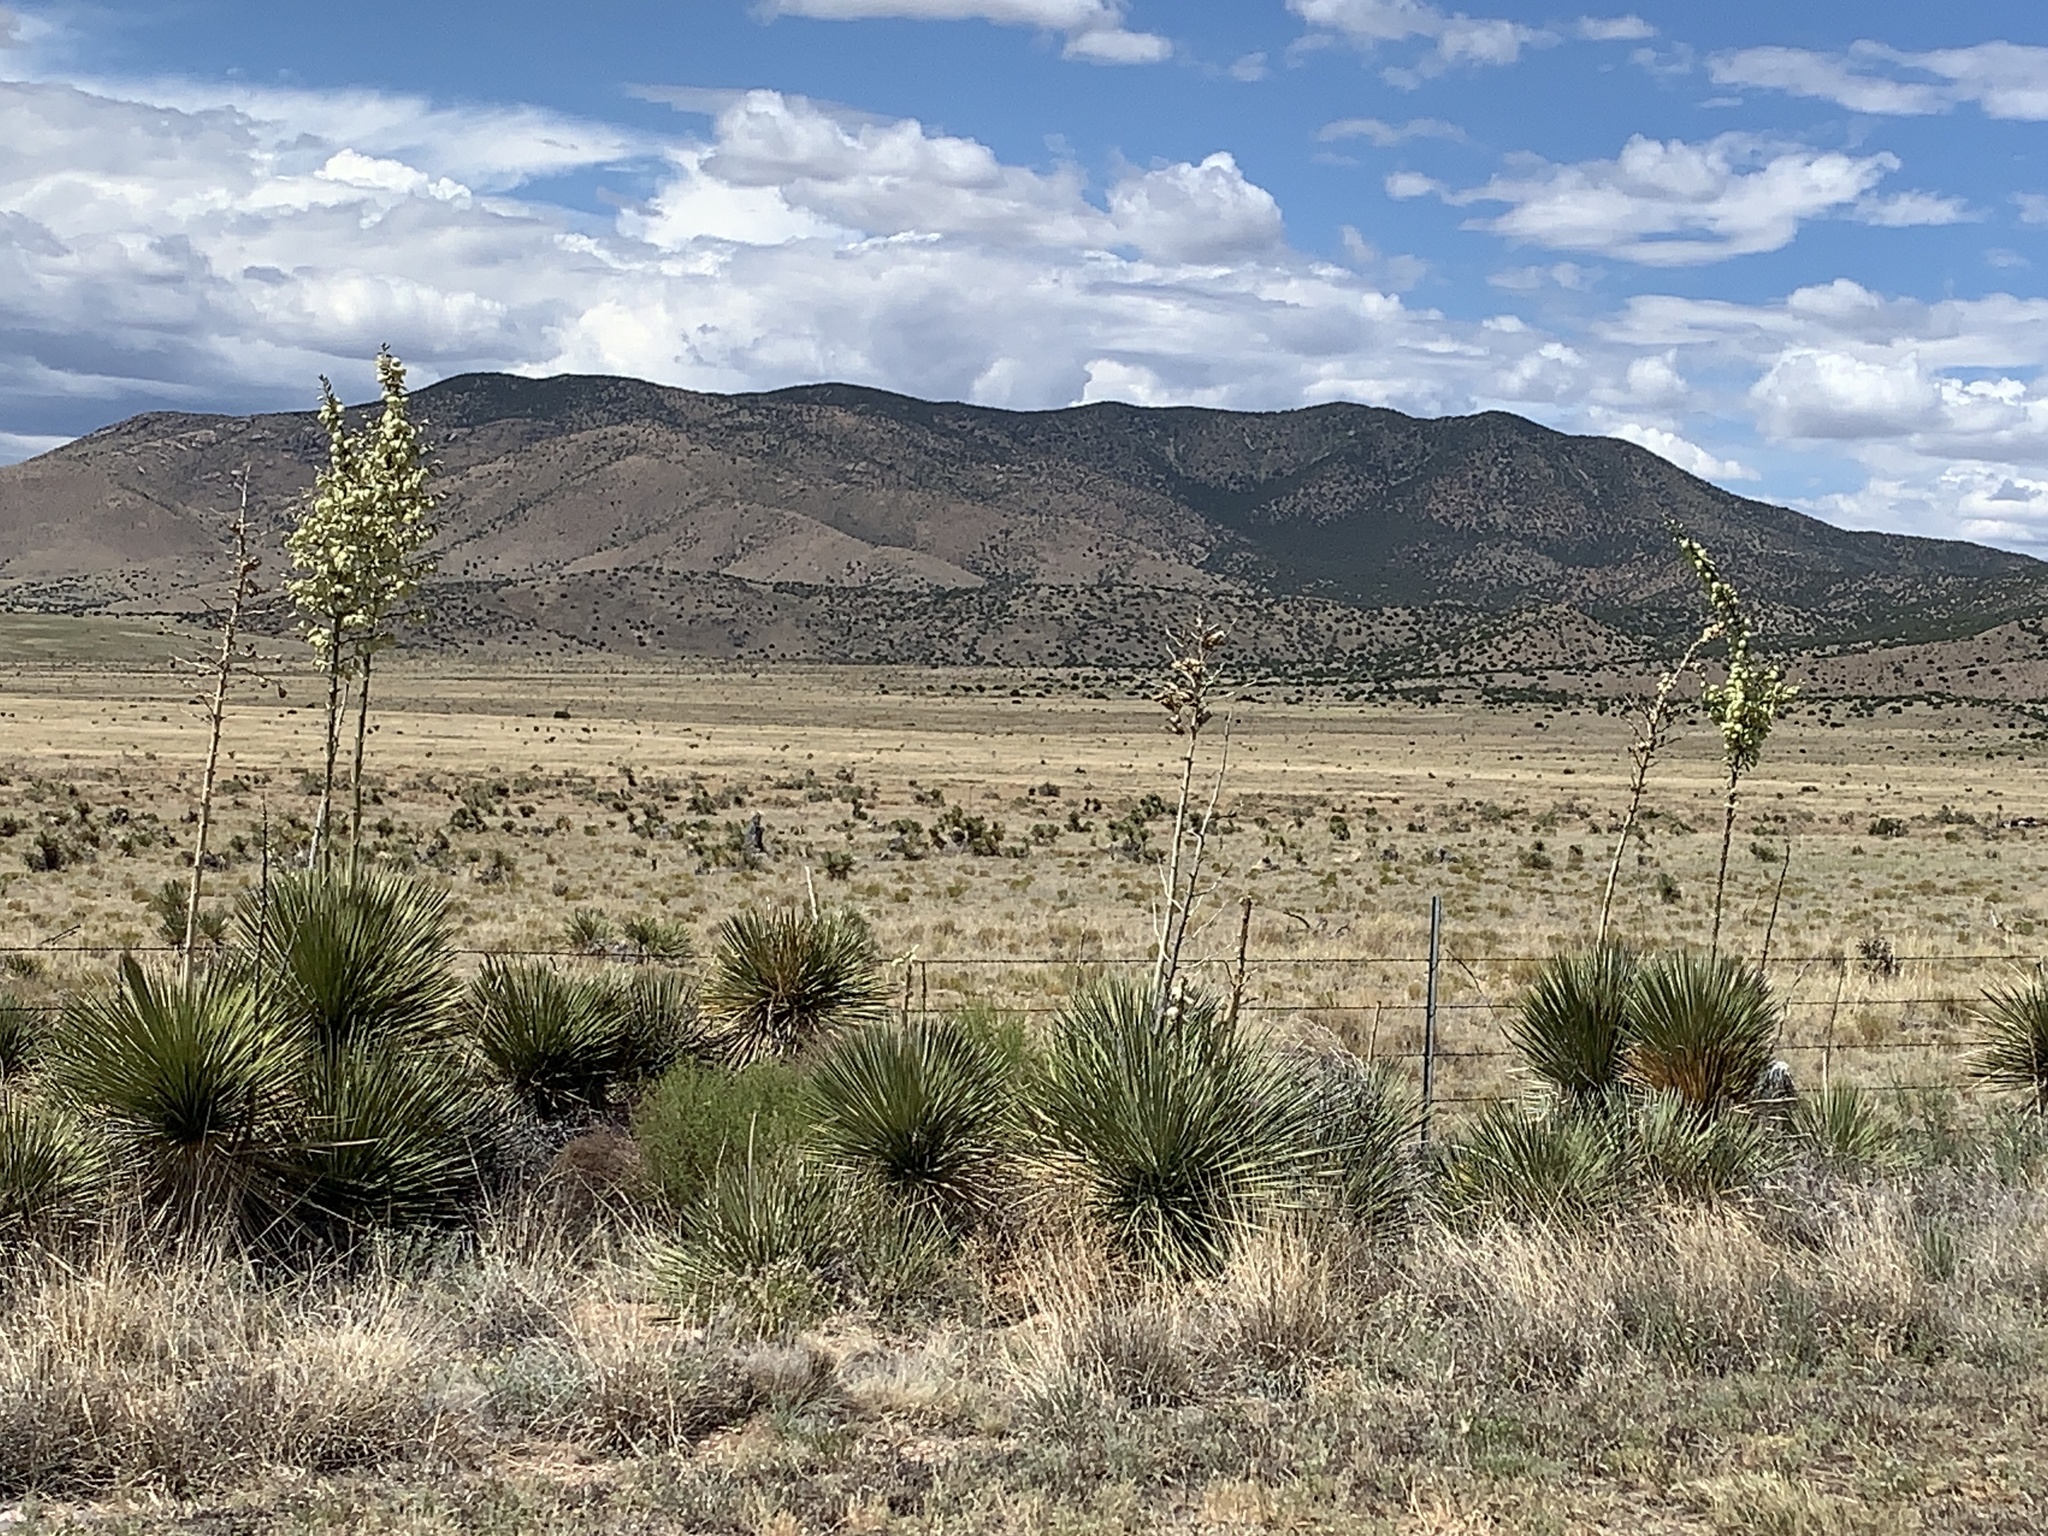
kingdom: Plantae
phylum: Tracheophyta
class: Liliopsida
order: Asparagales
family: Asparagaceae
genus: Yucca
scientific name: Yucca elata
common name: Palmella
